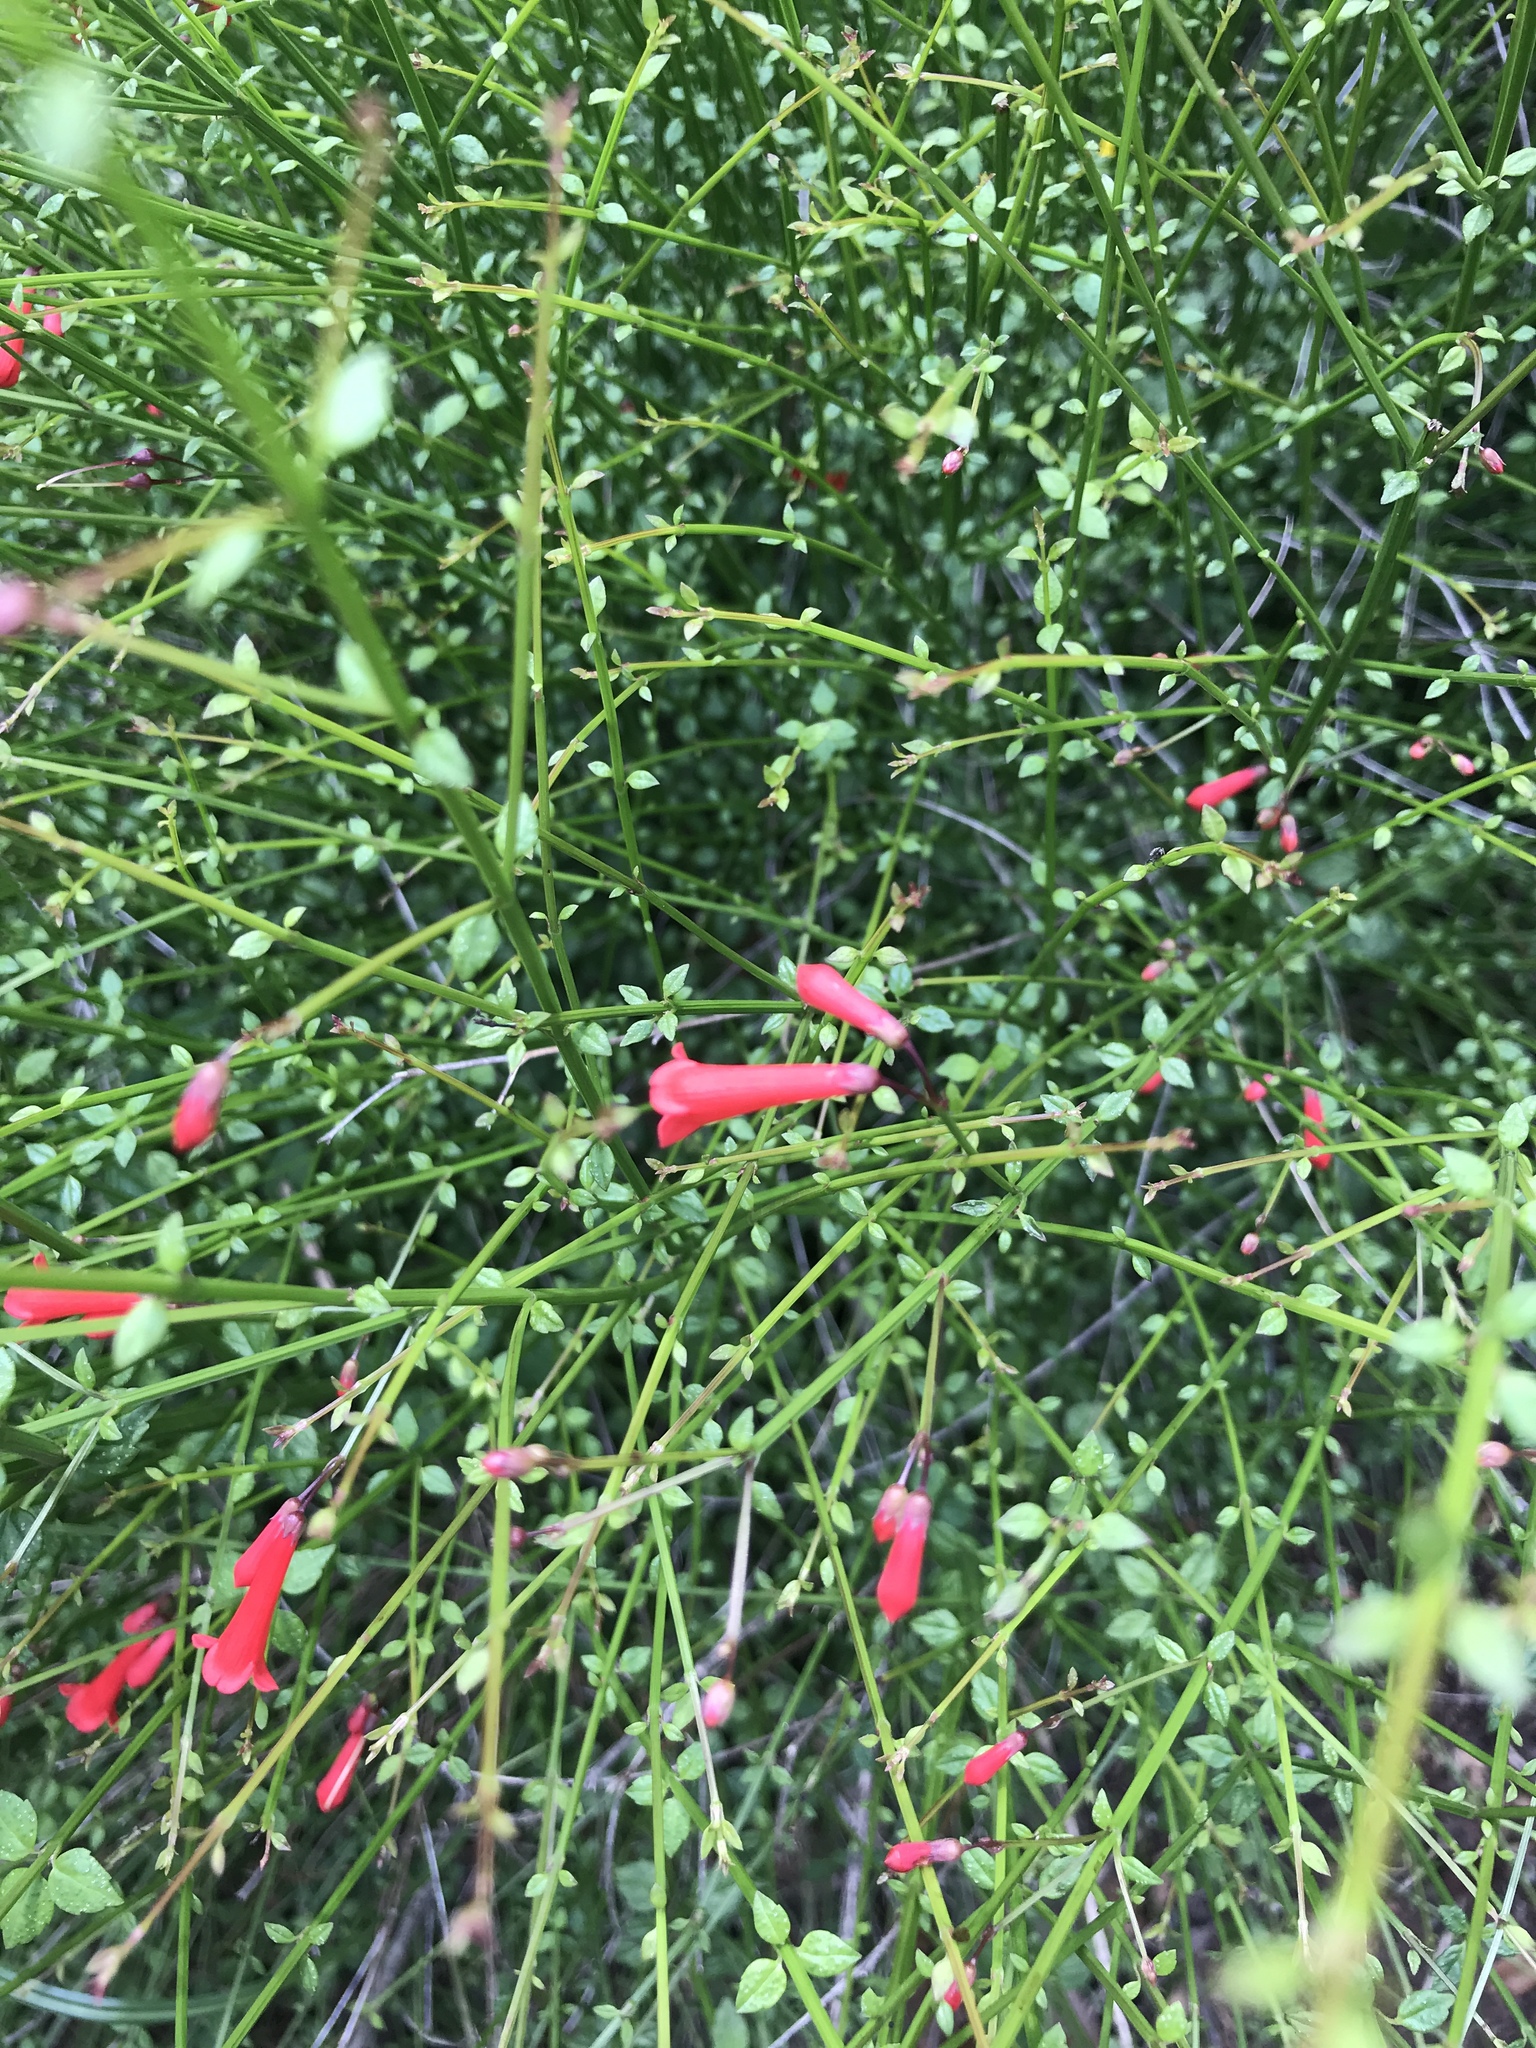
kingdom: Plantae
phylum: Tracheophyta
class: Magnoliopsida
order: Lamiales
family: Plantaginaceae
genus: Russelia
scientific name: Russelia equisetiformis
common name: Fountainbush
